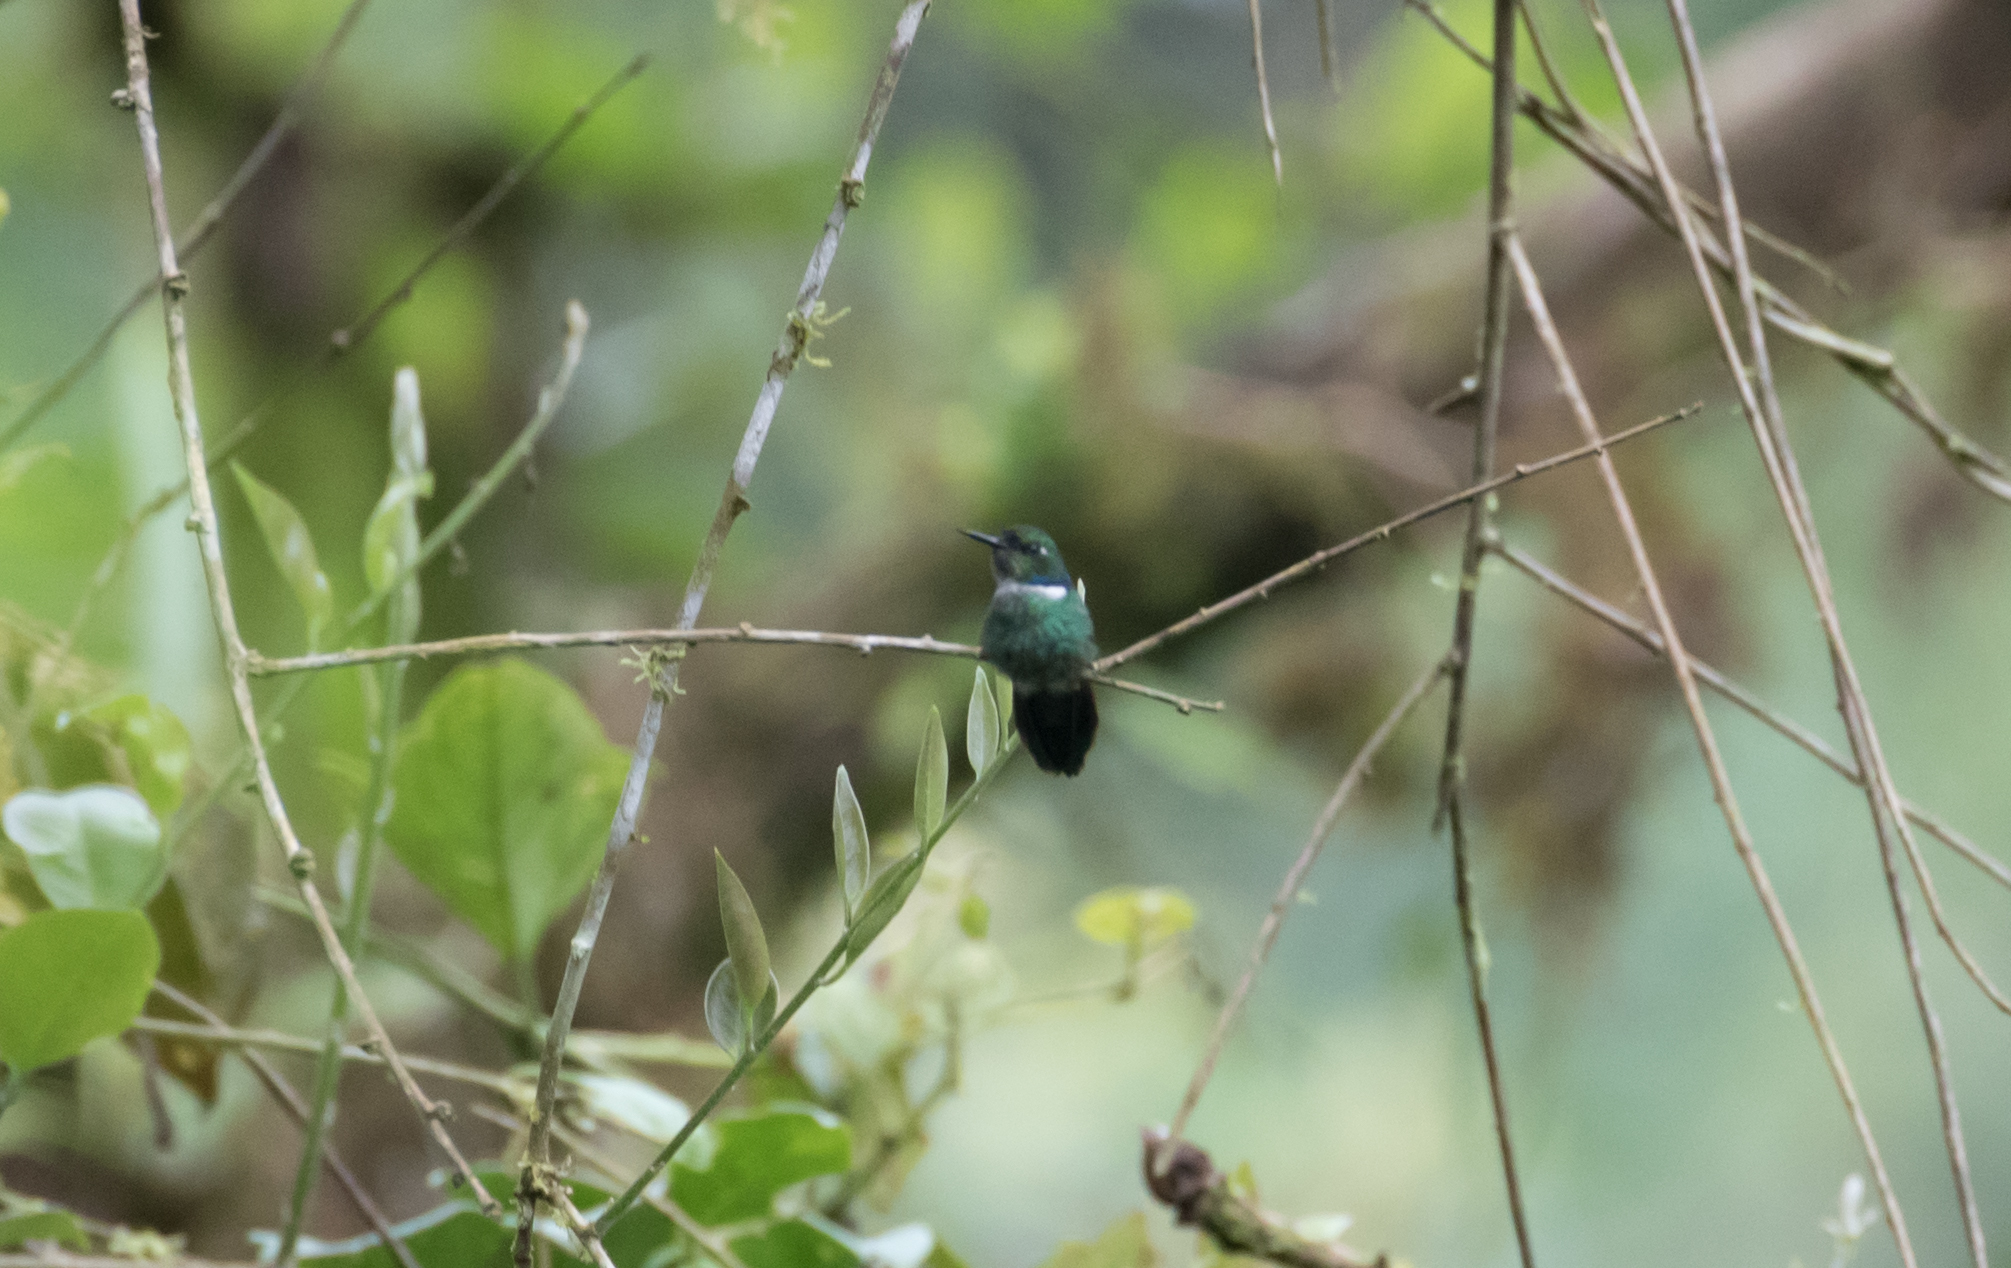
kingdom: Animalia
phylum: Chordata
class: Aves
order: Apodiformes
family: Trochilidae
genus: Schistes
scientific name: Schistes albogularis
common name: White-throated daggerbill
